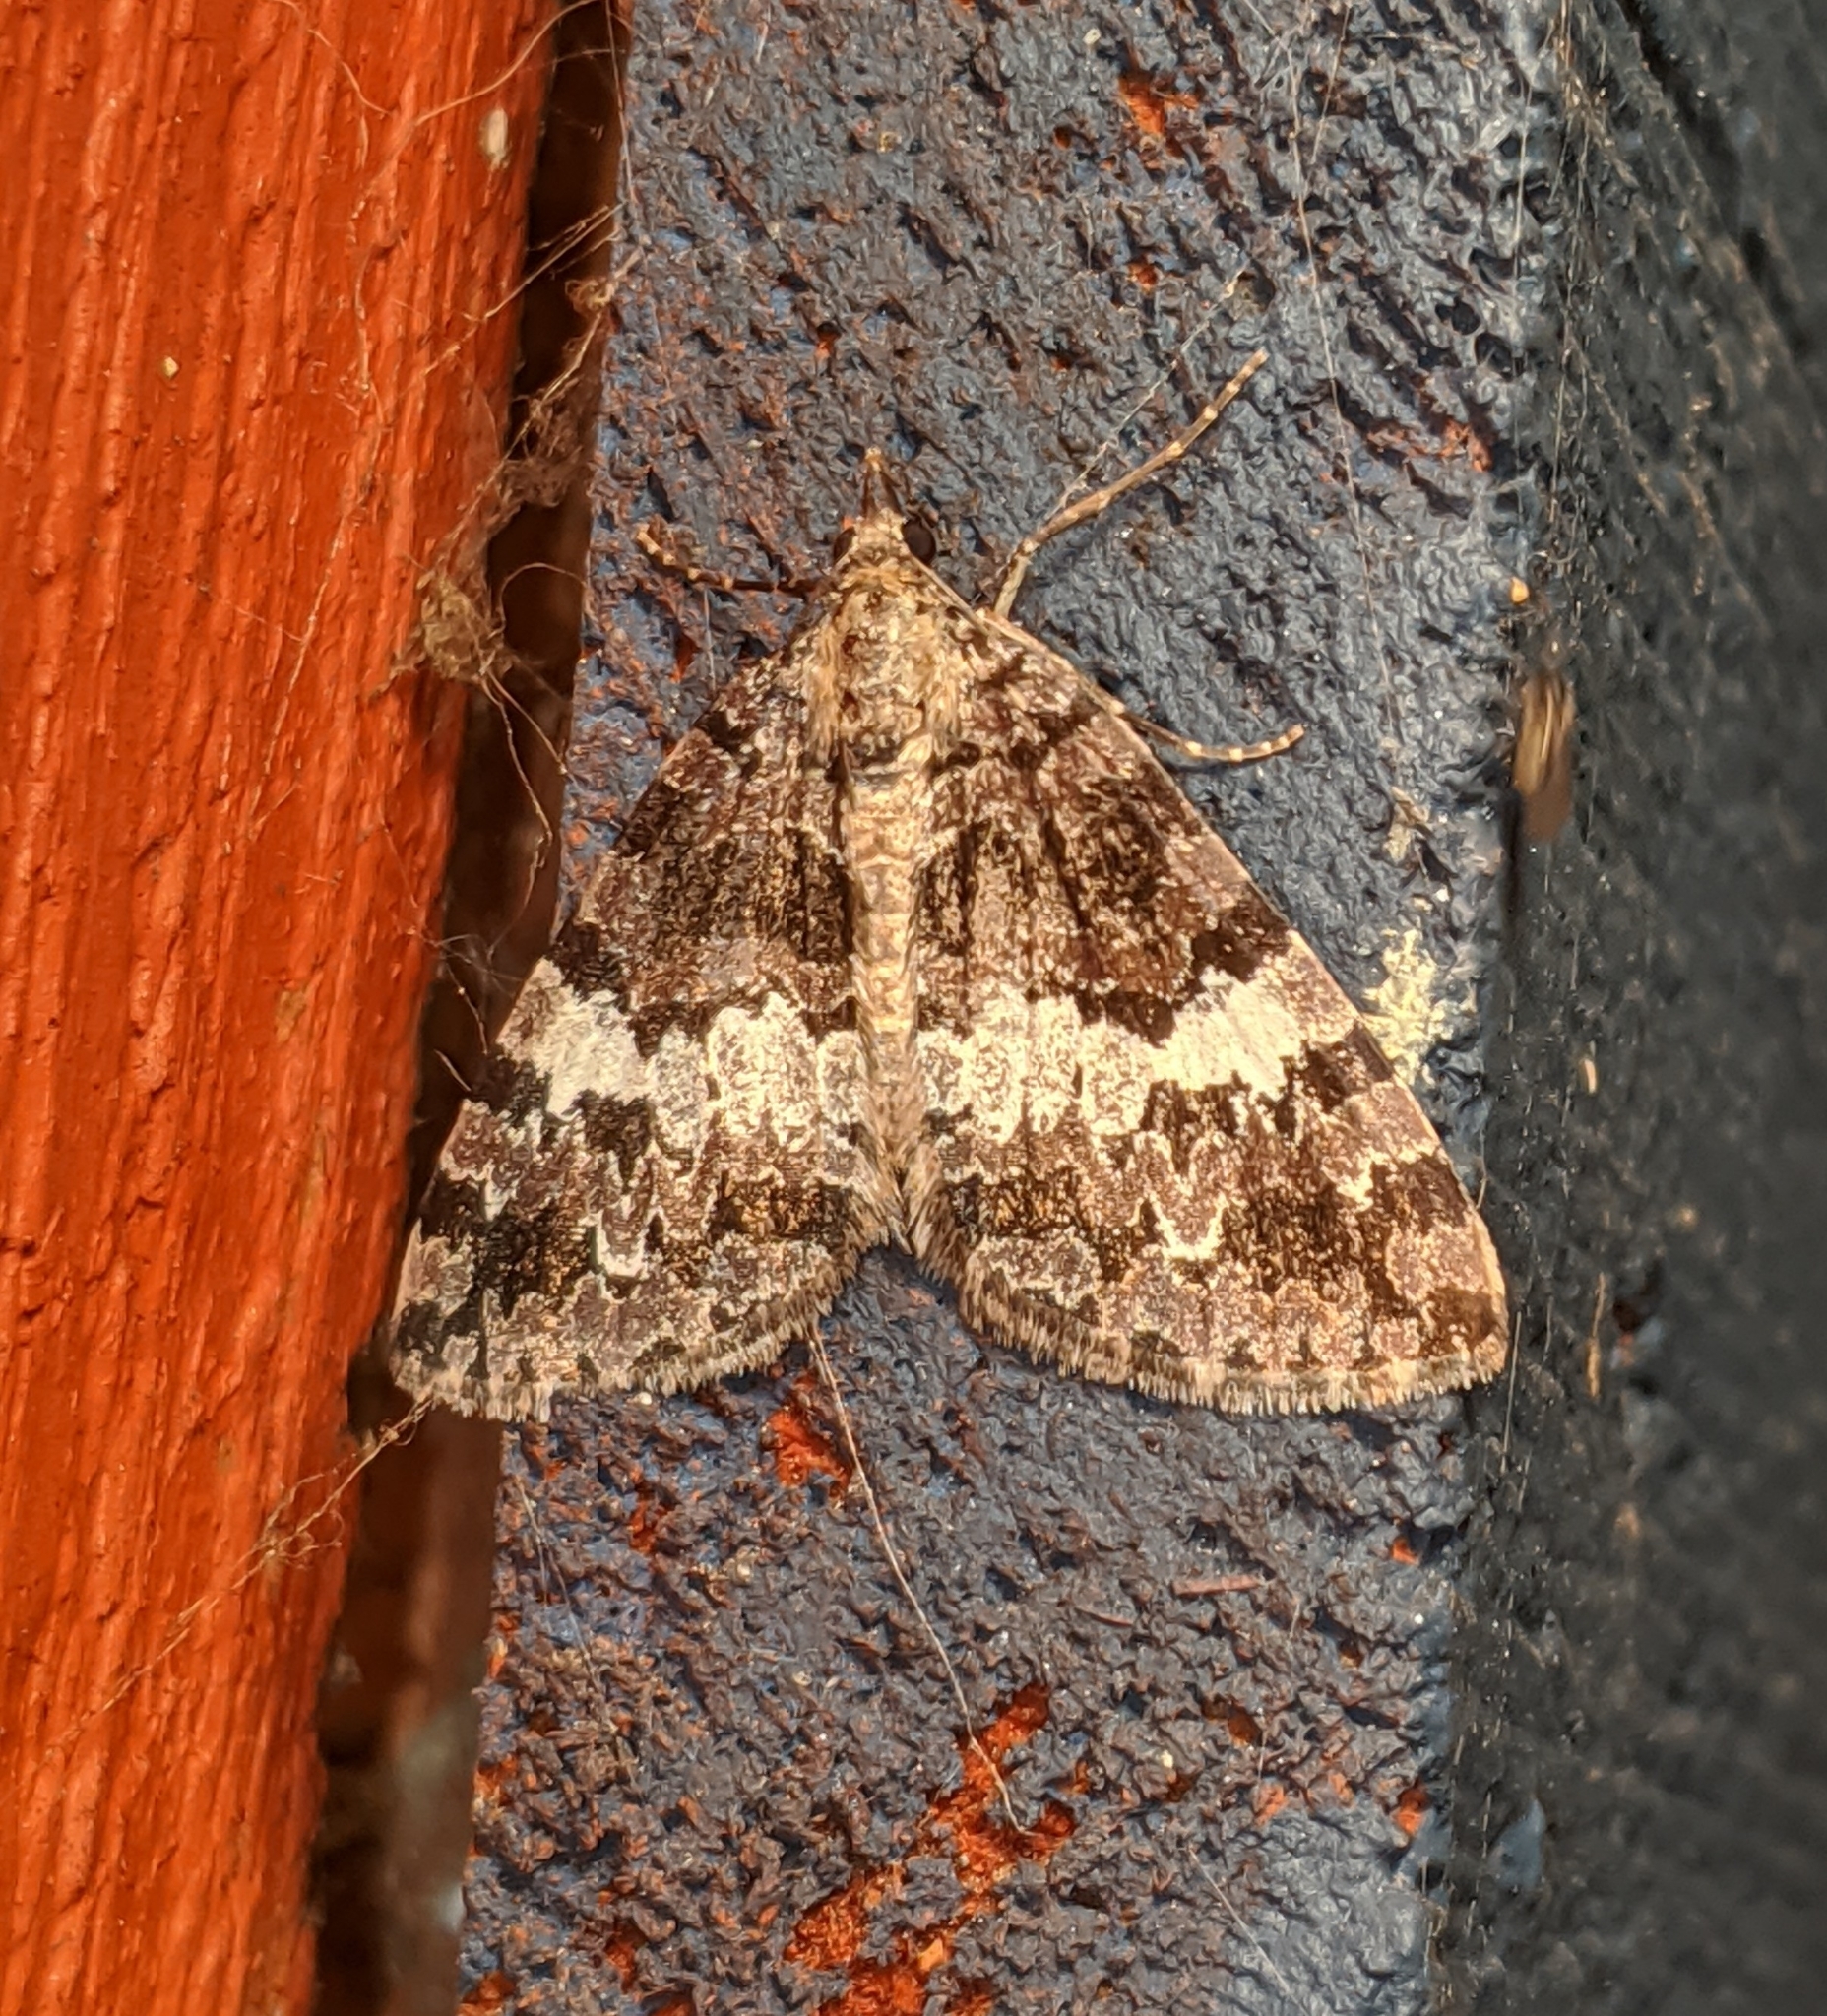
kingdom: Animalia
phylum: Arthropoda
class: Insecta
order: Lepidoptera
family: Geometridae
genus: Hydriomena
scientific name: Hydriomena speciosata
